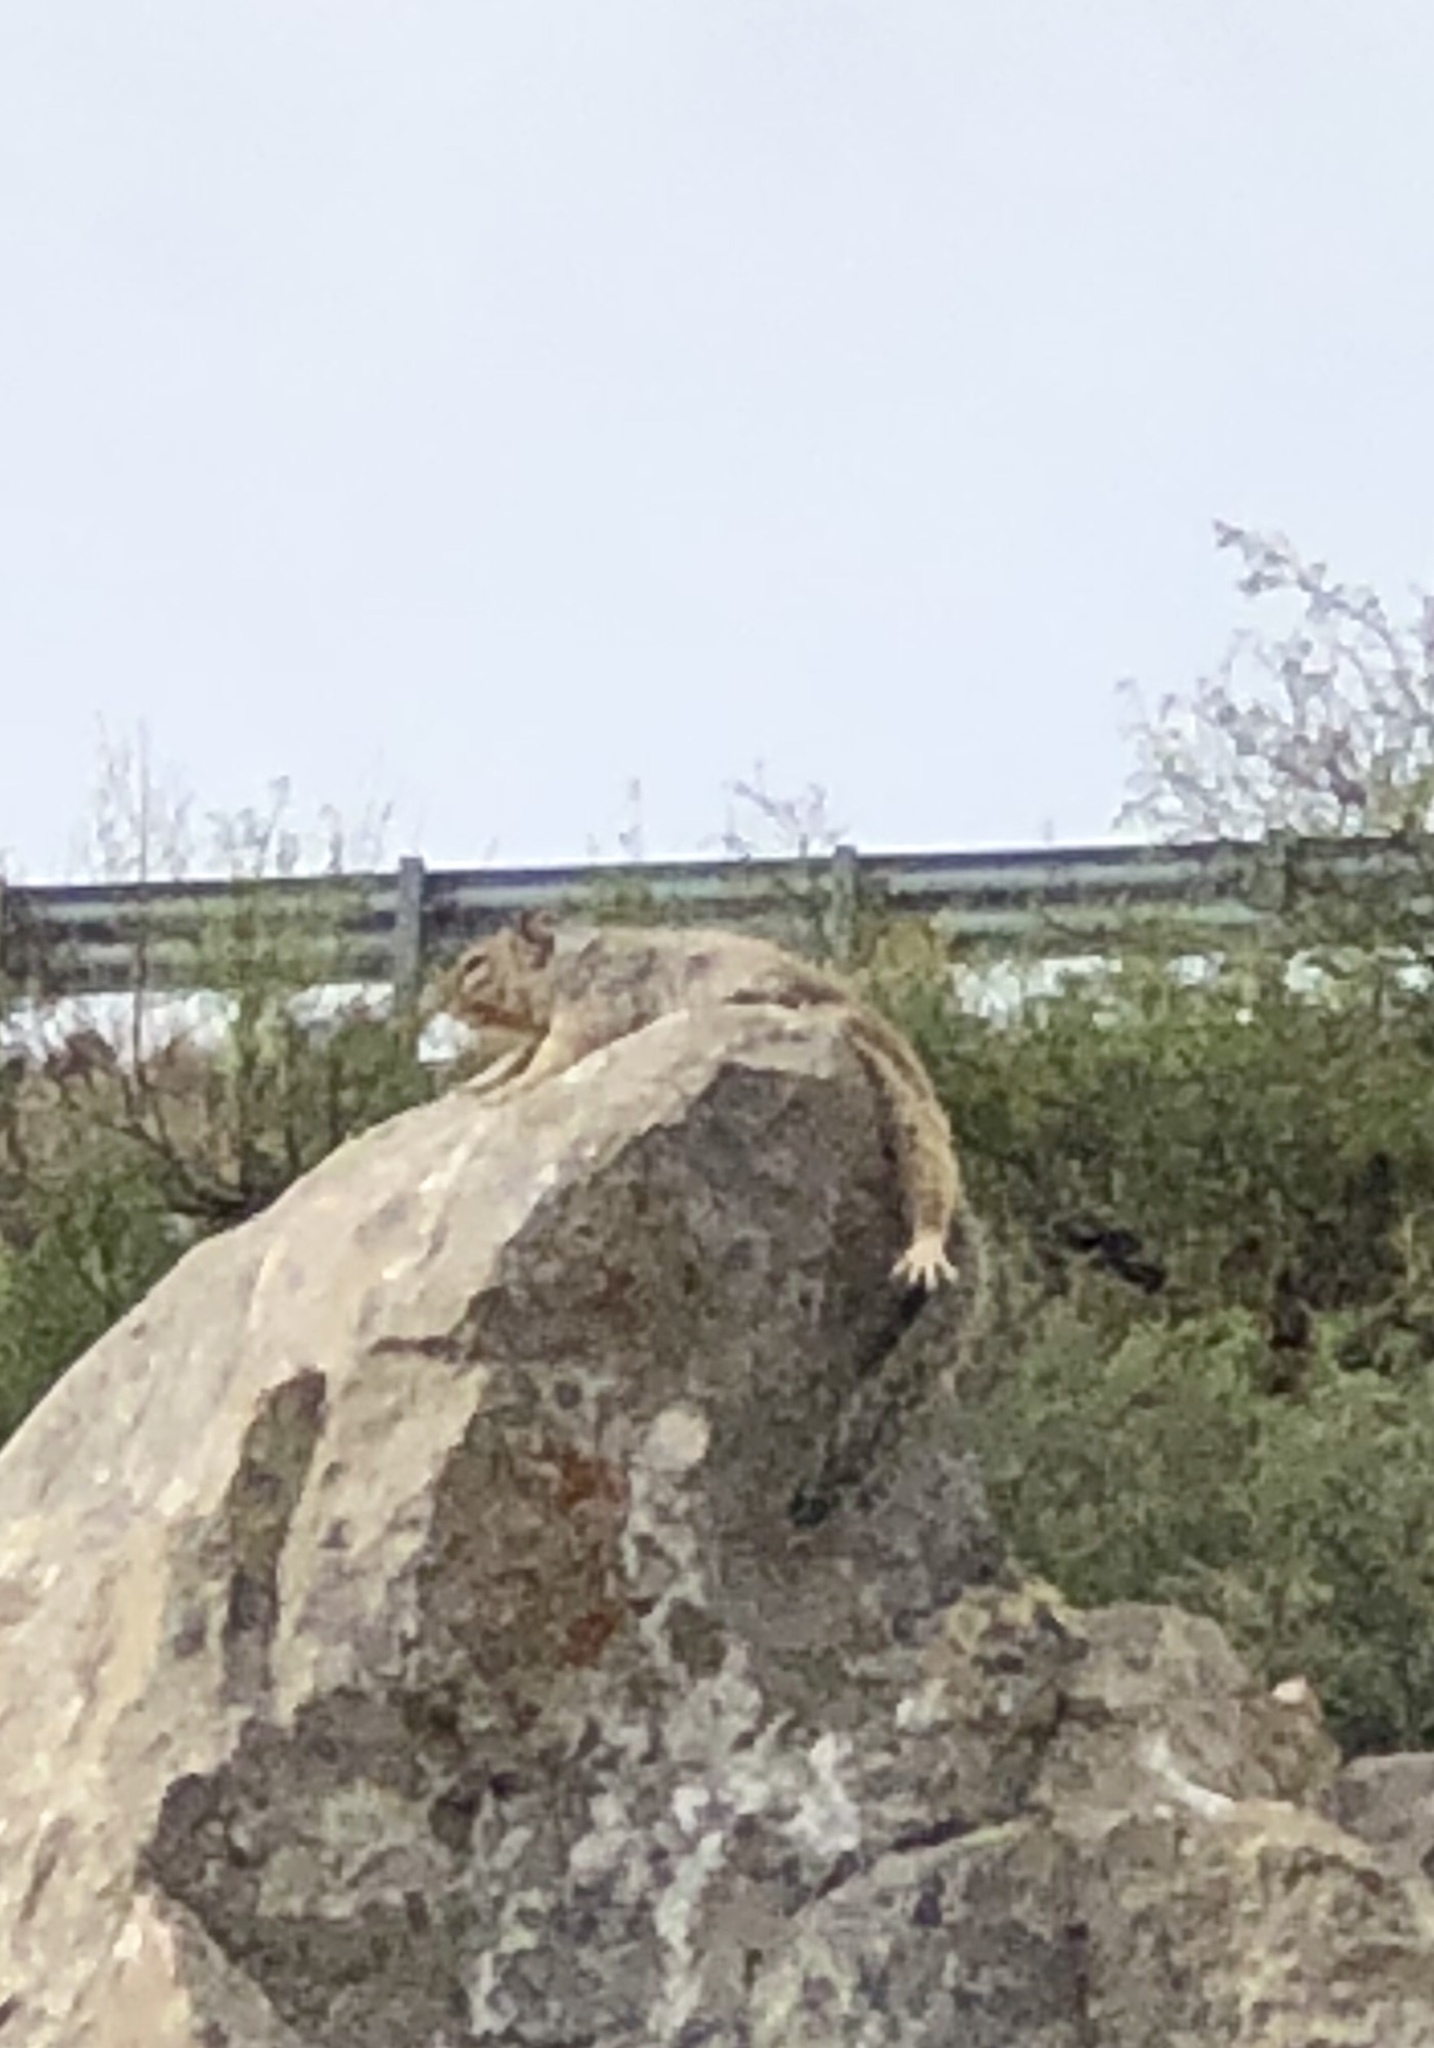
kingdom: Animalia
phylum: Chordata
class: Mammalia
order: Rodentia
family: Sciuridae
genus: Otospermophilus
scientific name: Otospermophilus variegatus
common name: Rock squirrel
